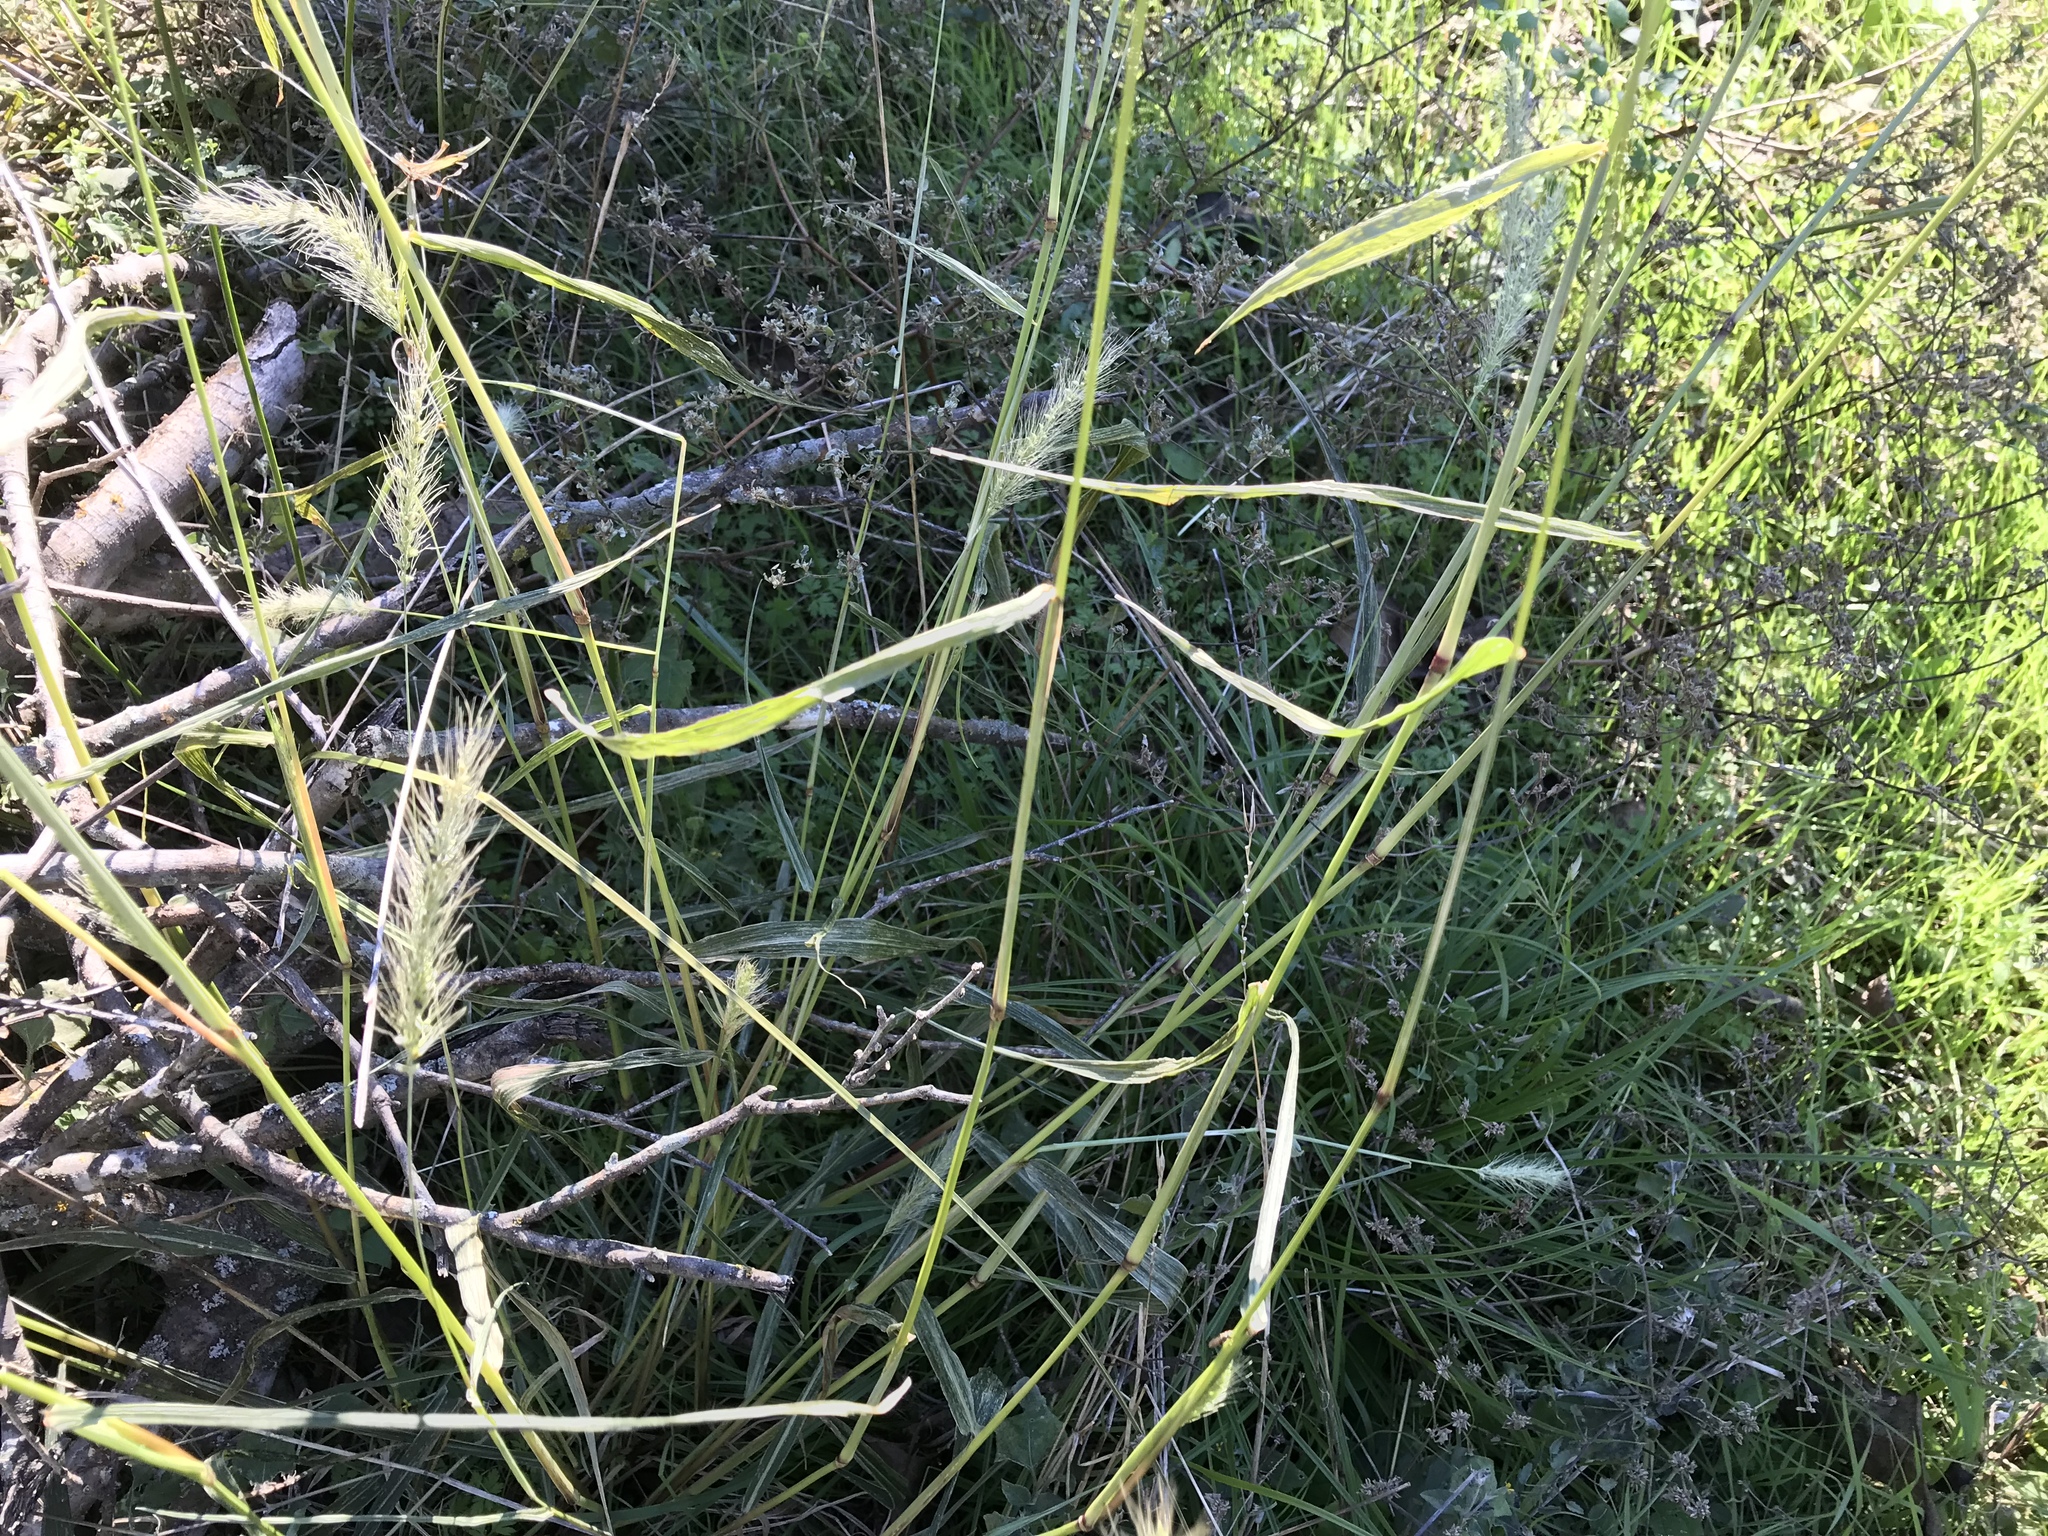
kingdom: Plantae
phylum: Tracheophyta
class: Liliopsida
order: Poales
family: Poaceae
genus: Setaria
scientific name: Setaria scheelei
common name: Southwestern bristle grass
